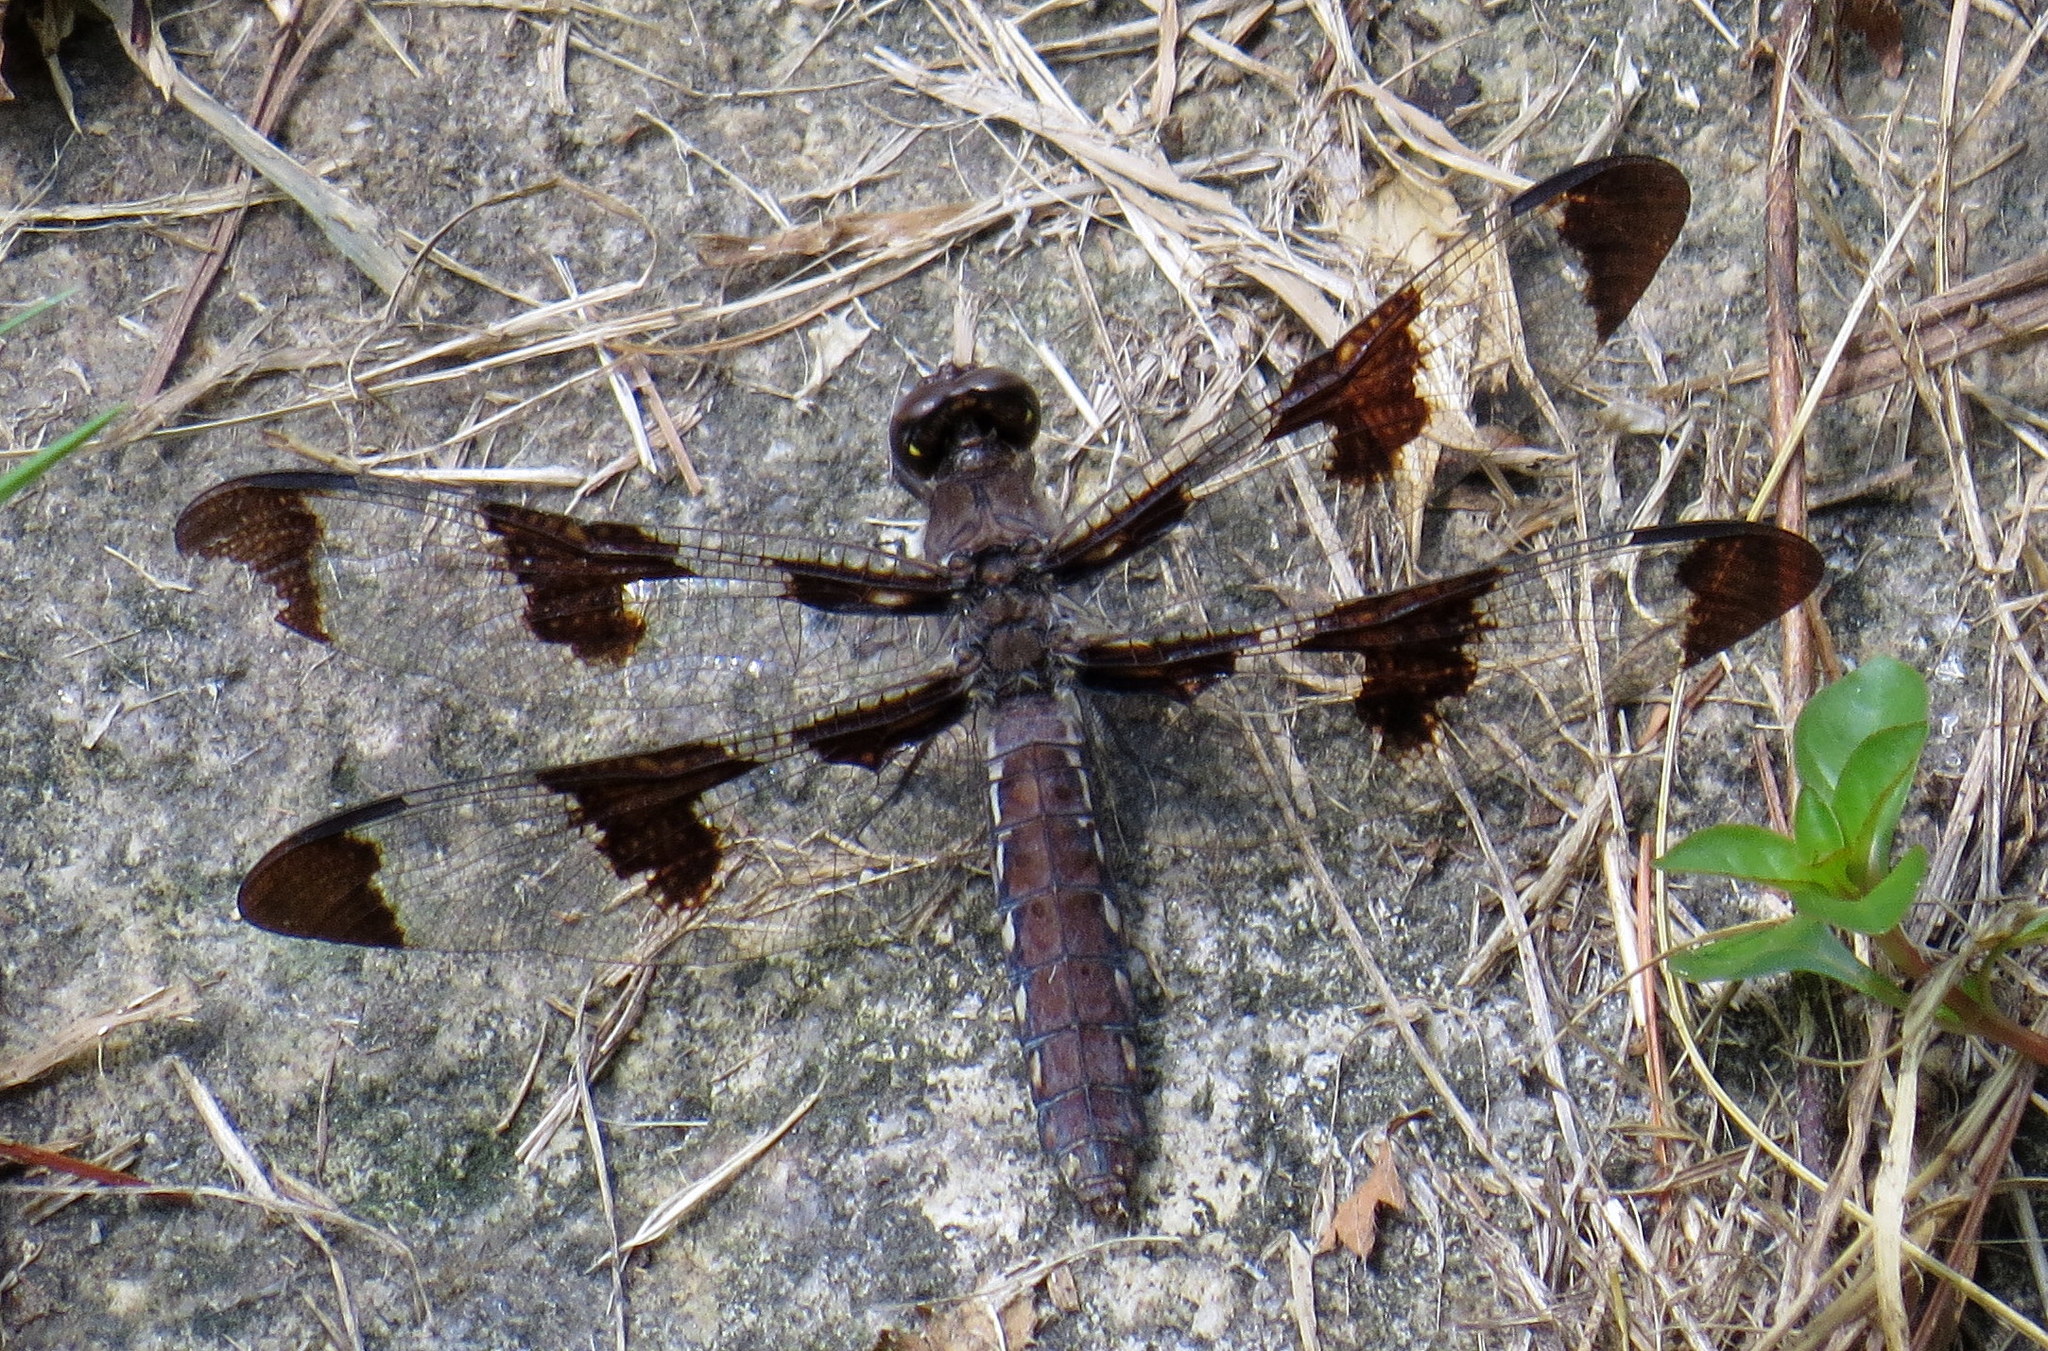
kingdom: Animalia
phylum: Arthropoda
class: Insecta
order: Odonata
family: Libellulidae
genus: Plathemis
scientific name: Plathemis lydia
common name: Common whitetail
